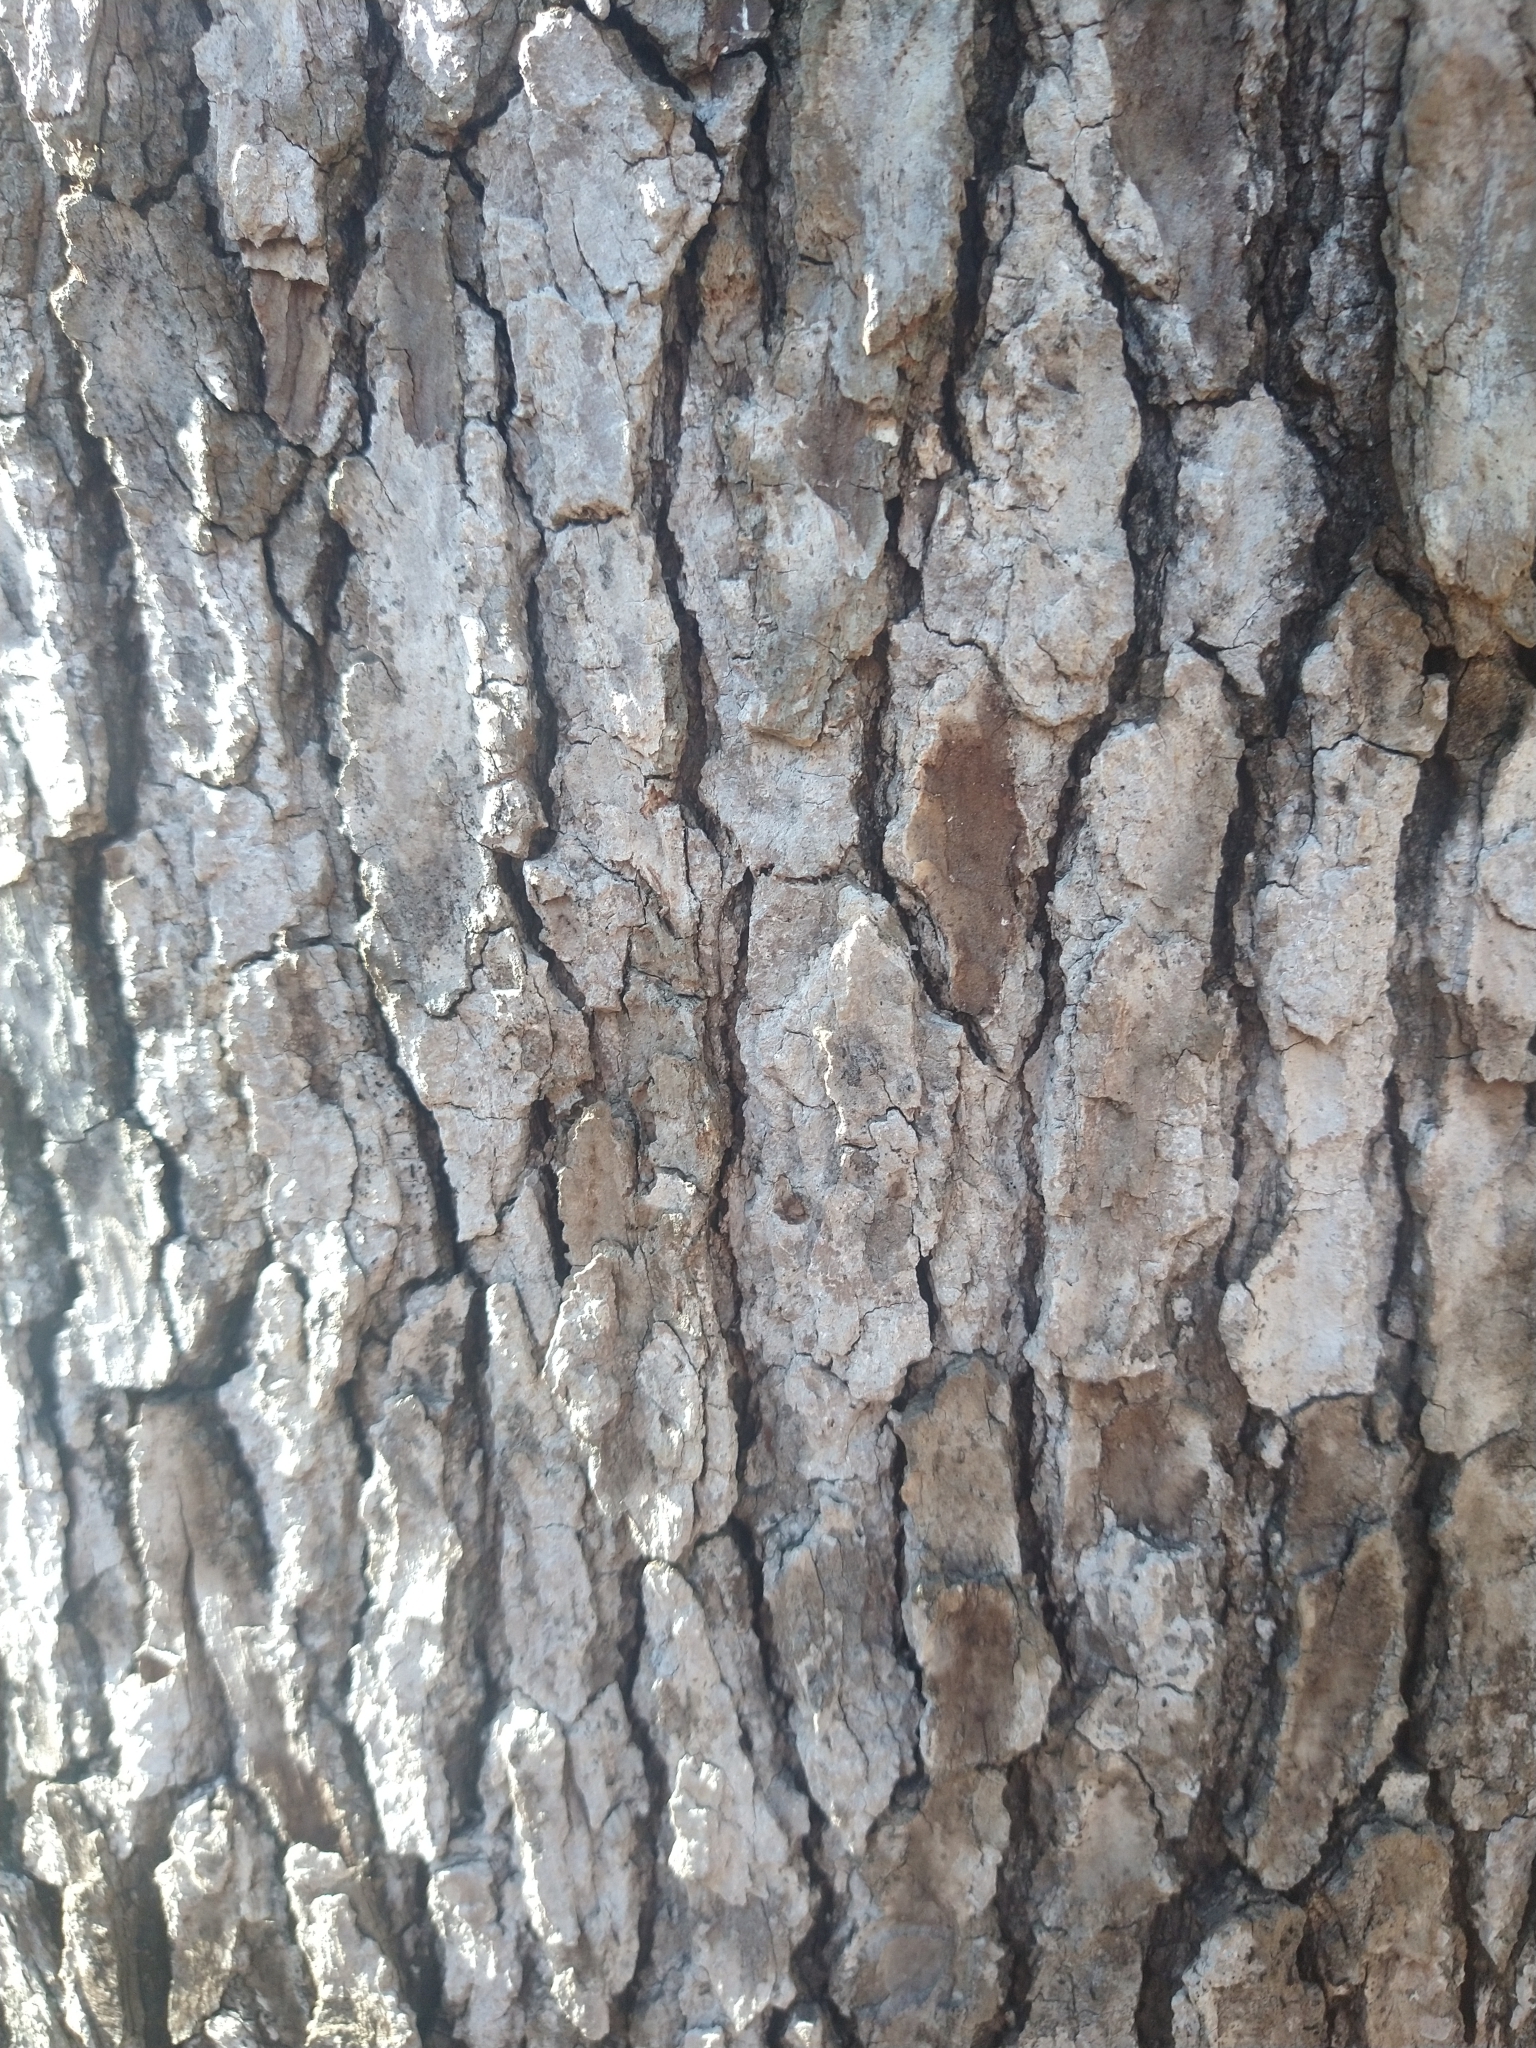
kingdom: Plantae
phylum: Tracheophyta
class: Magnoliopsida
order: Saxifragales
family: Altingiaceae
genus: Liquidambar
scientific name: Liquidambar styraciflua
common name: Sweet gum
